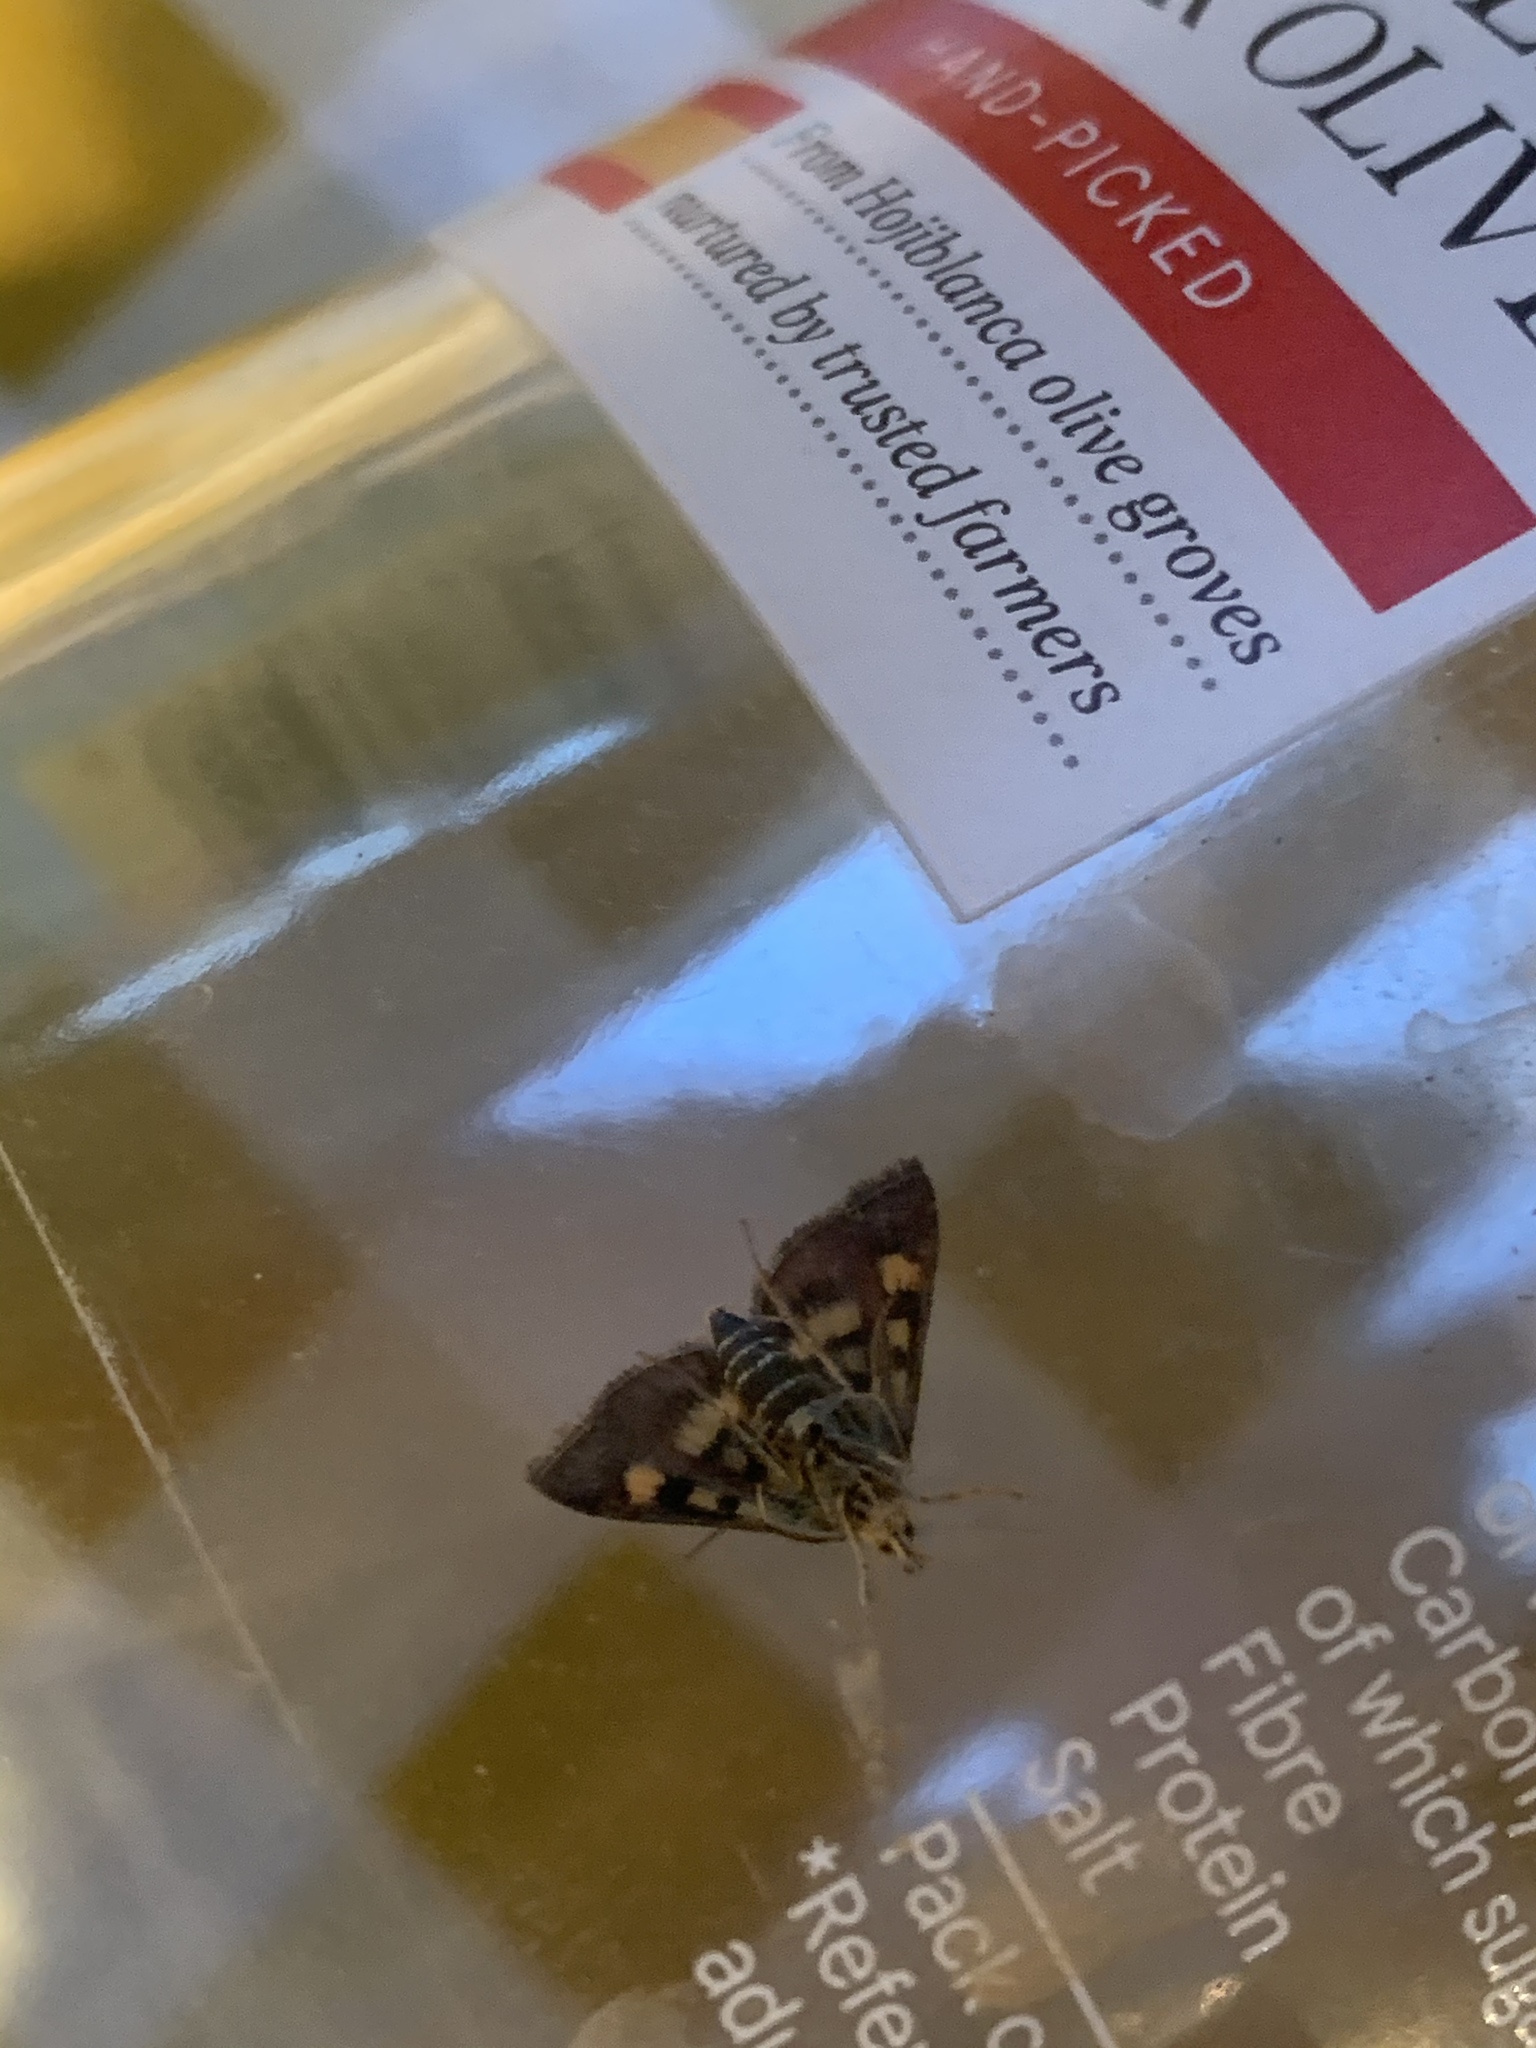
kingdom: Animalia
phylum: Arthropoda
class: Insecta
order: Lepidoptera
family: Crambidae
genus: Pyrausta
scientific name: Pyrausta aurata
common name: Small purple & gold
